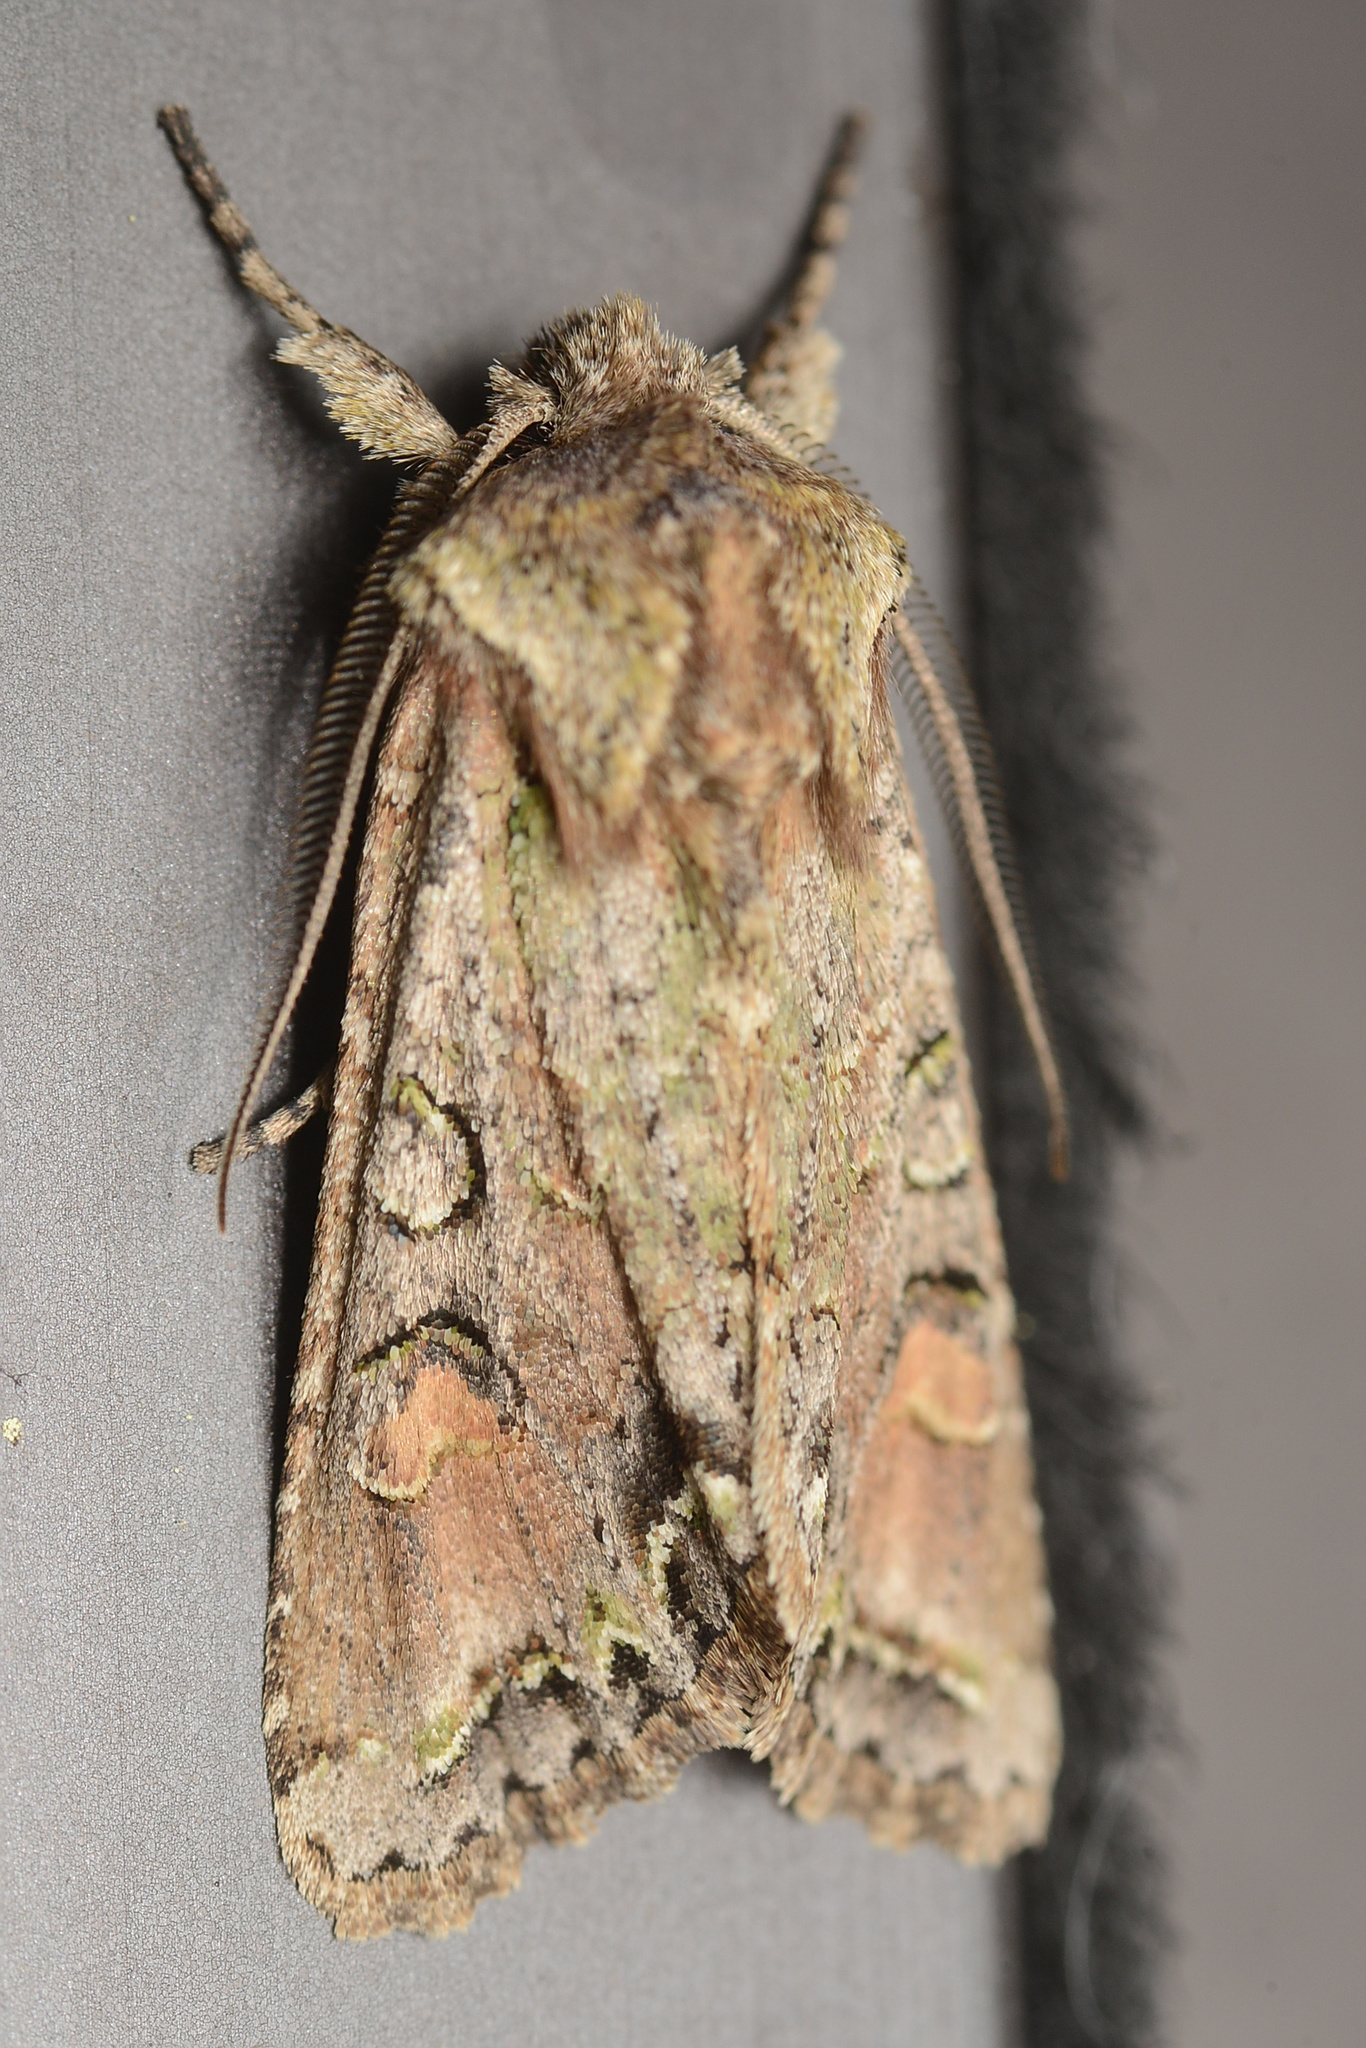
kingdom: Animalia
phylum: Arthropoda
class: Insecta
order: Lepidoptera
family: Noctuidae
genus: Ichneutica
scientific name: Ichneutica skelloni
